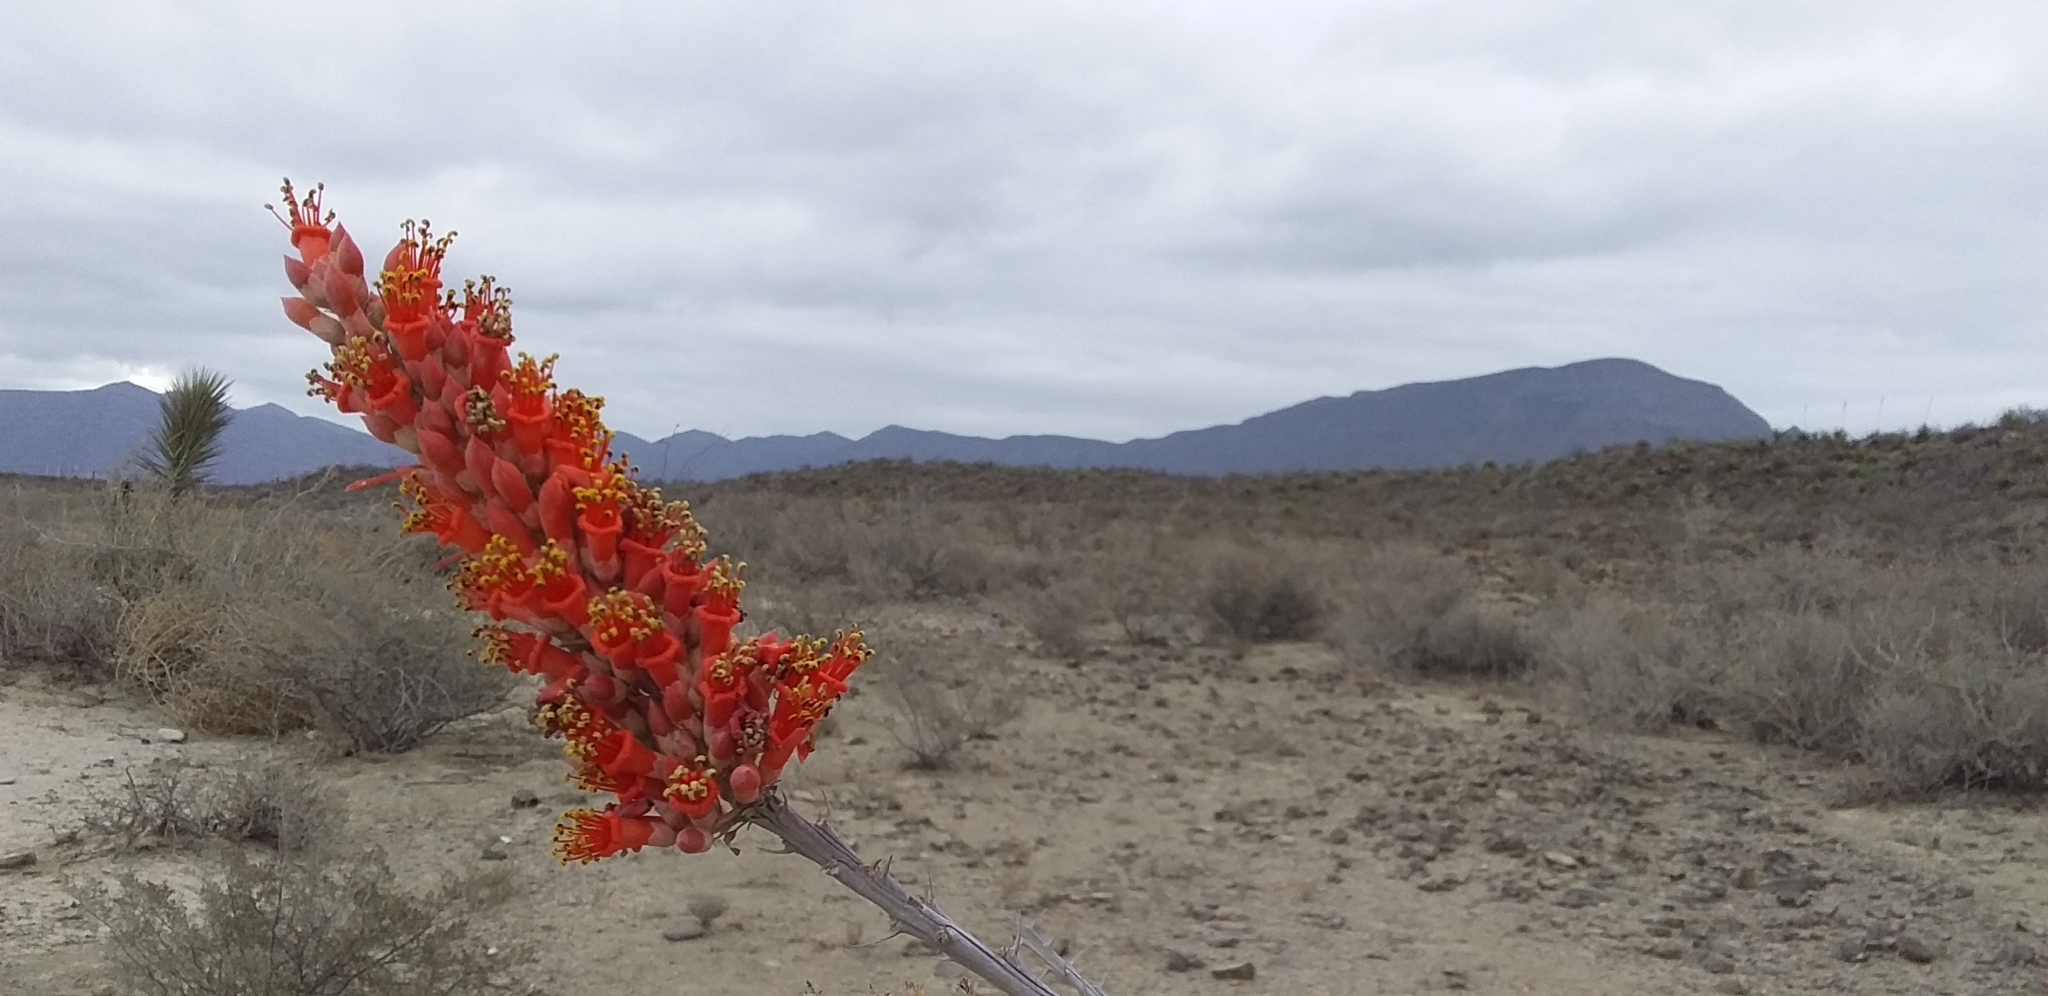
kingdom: Plantae
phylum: Tracheophyta
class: Magnoliopsida
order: Ericales
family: Fouquieriaceae
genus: Fouquieria
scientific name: Fouquieria splendens
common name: Vine-cactus
